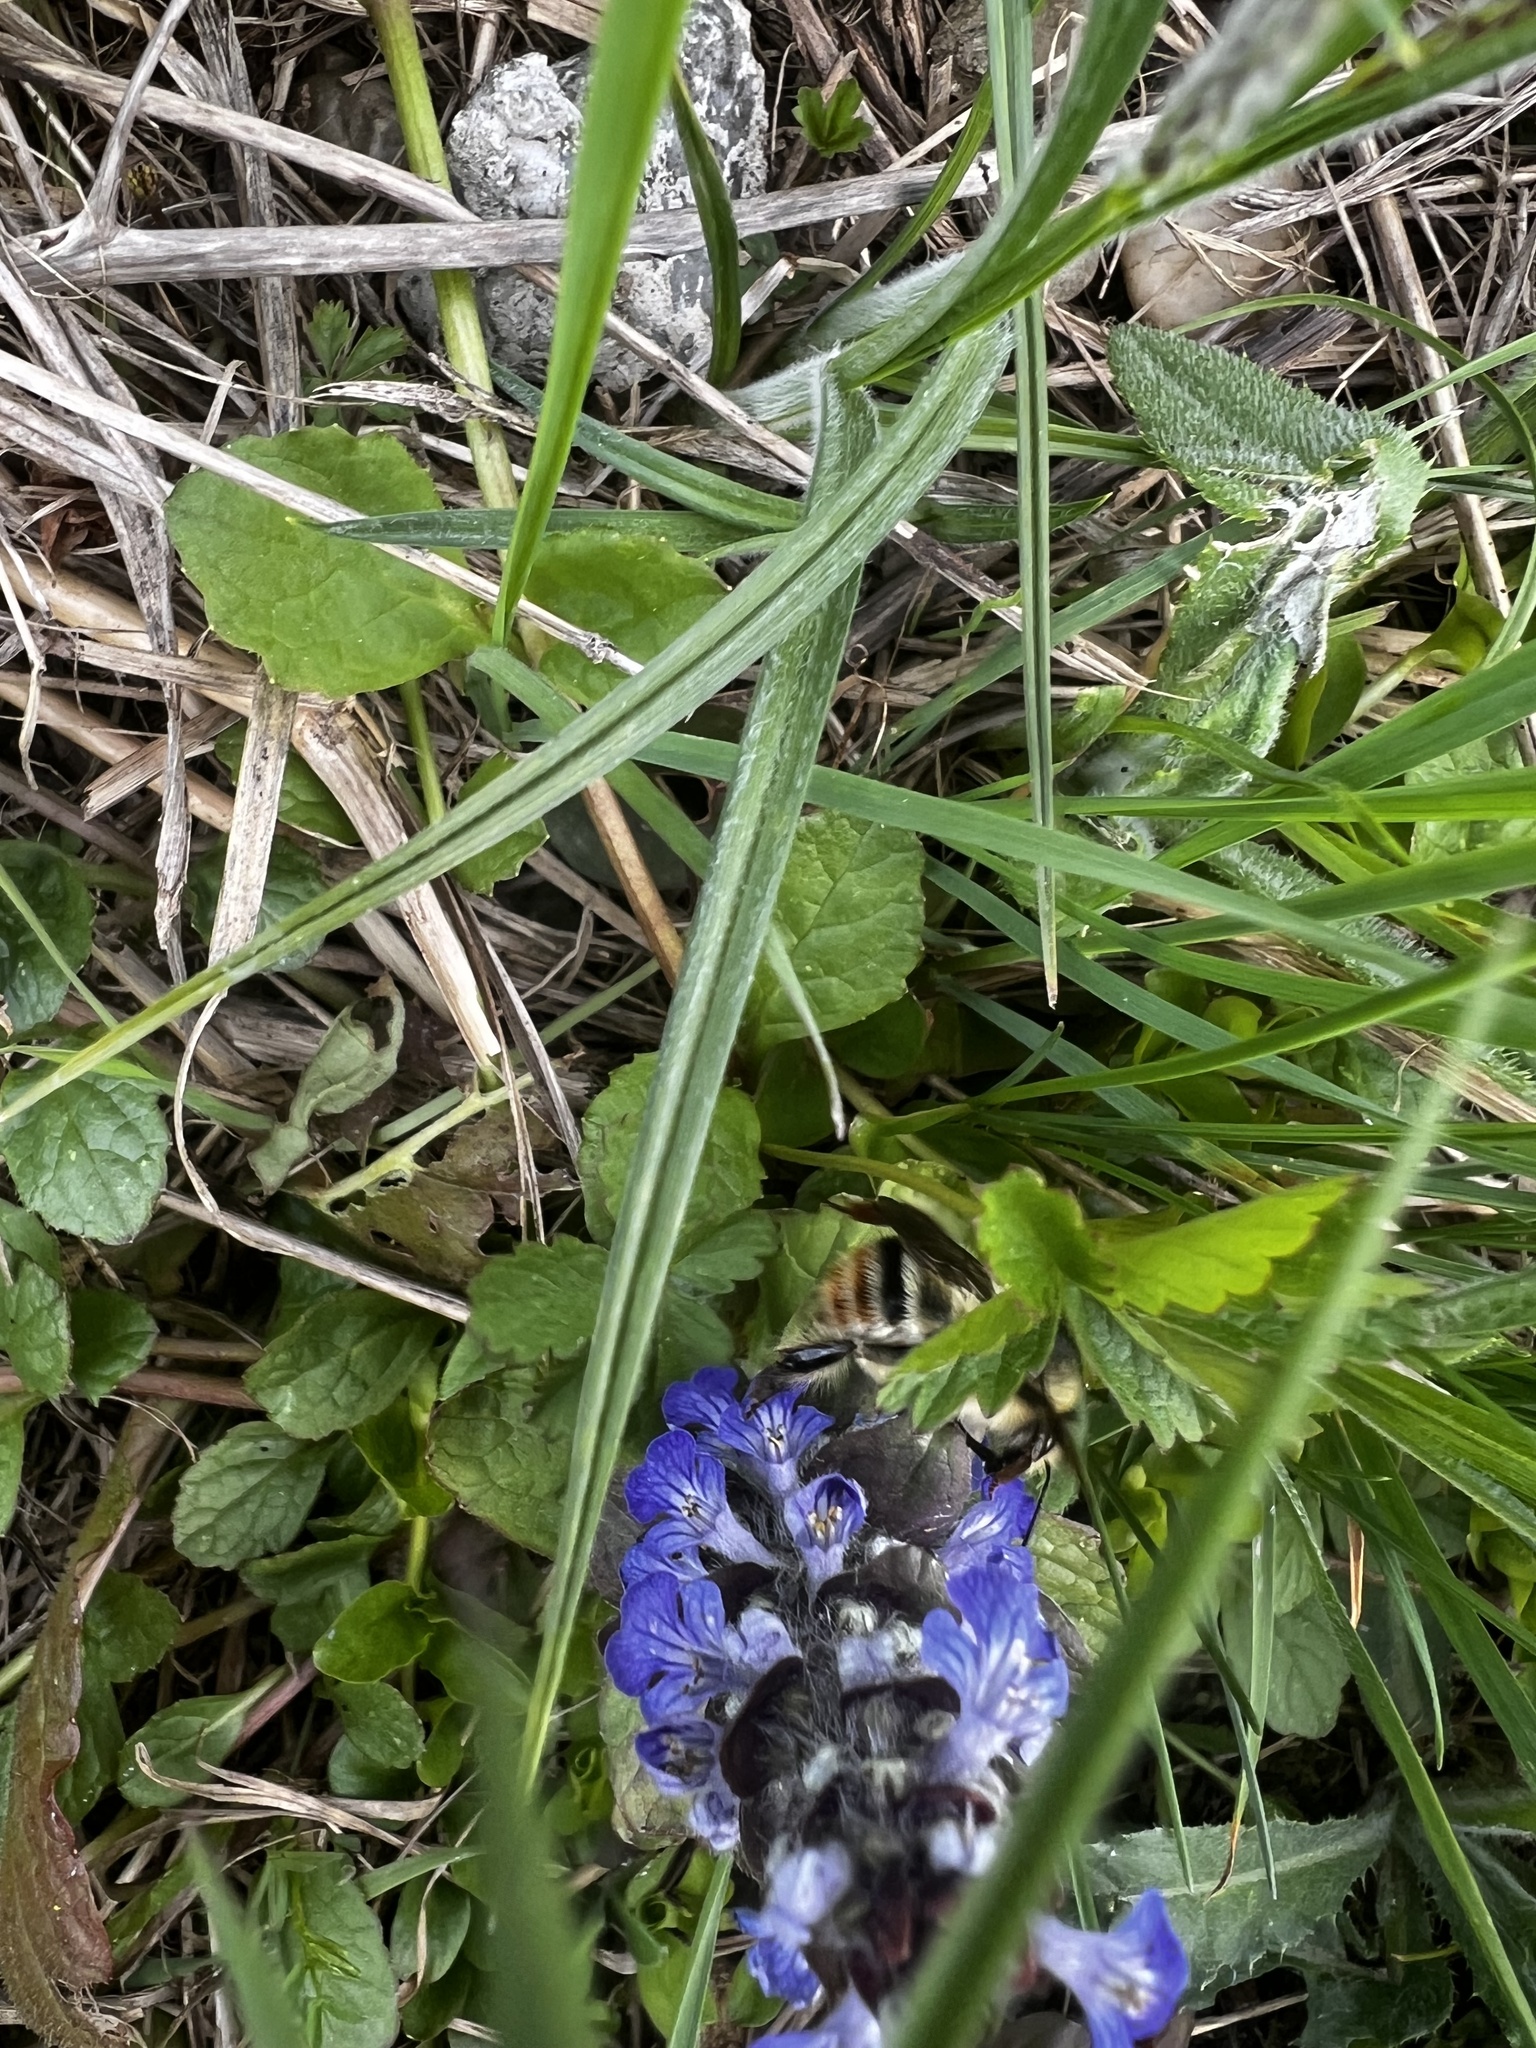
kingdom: Animalia
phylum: Arthropoda
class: Insecta
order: Hymenoptera
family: Apidae
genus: Bombus
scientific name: Bombus sylvarum
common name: Shrill carder bee
